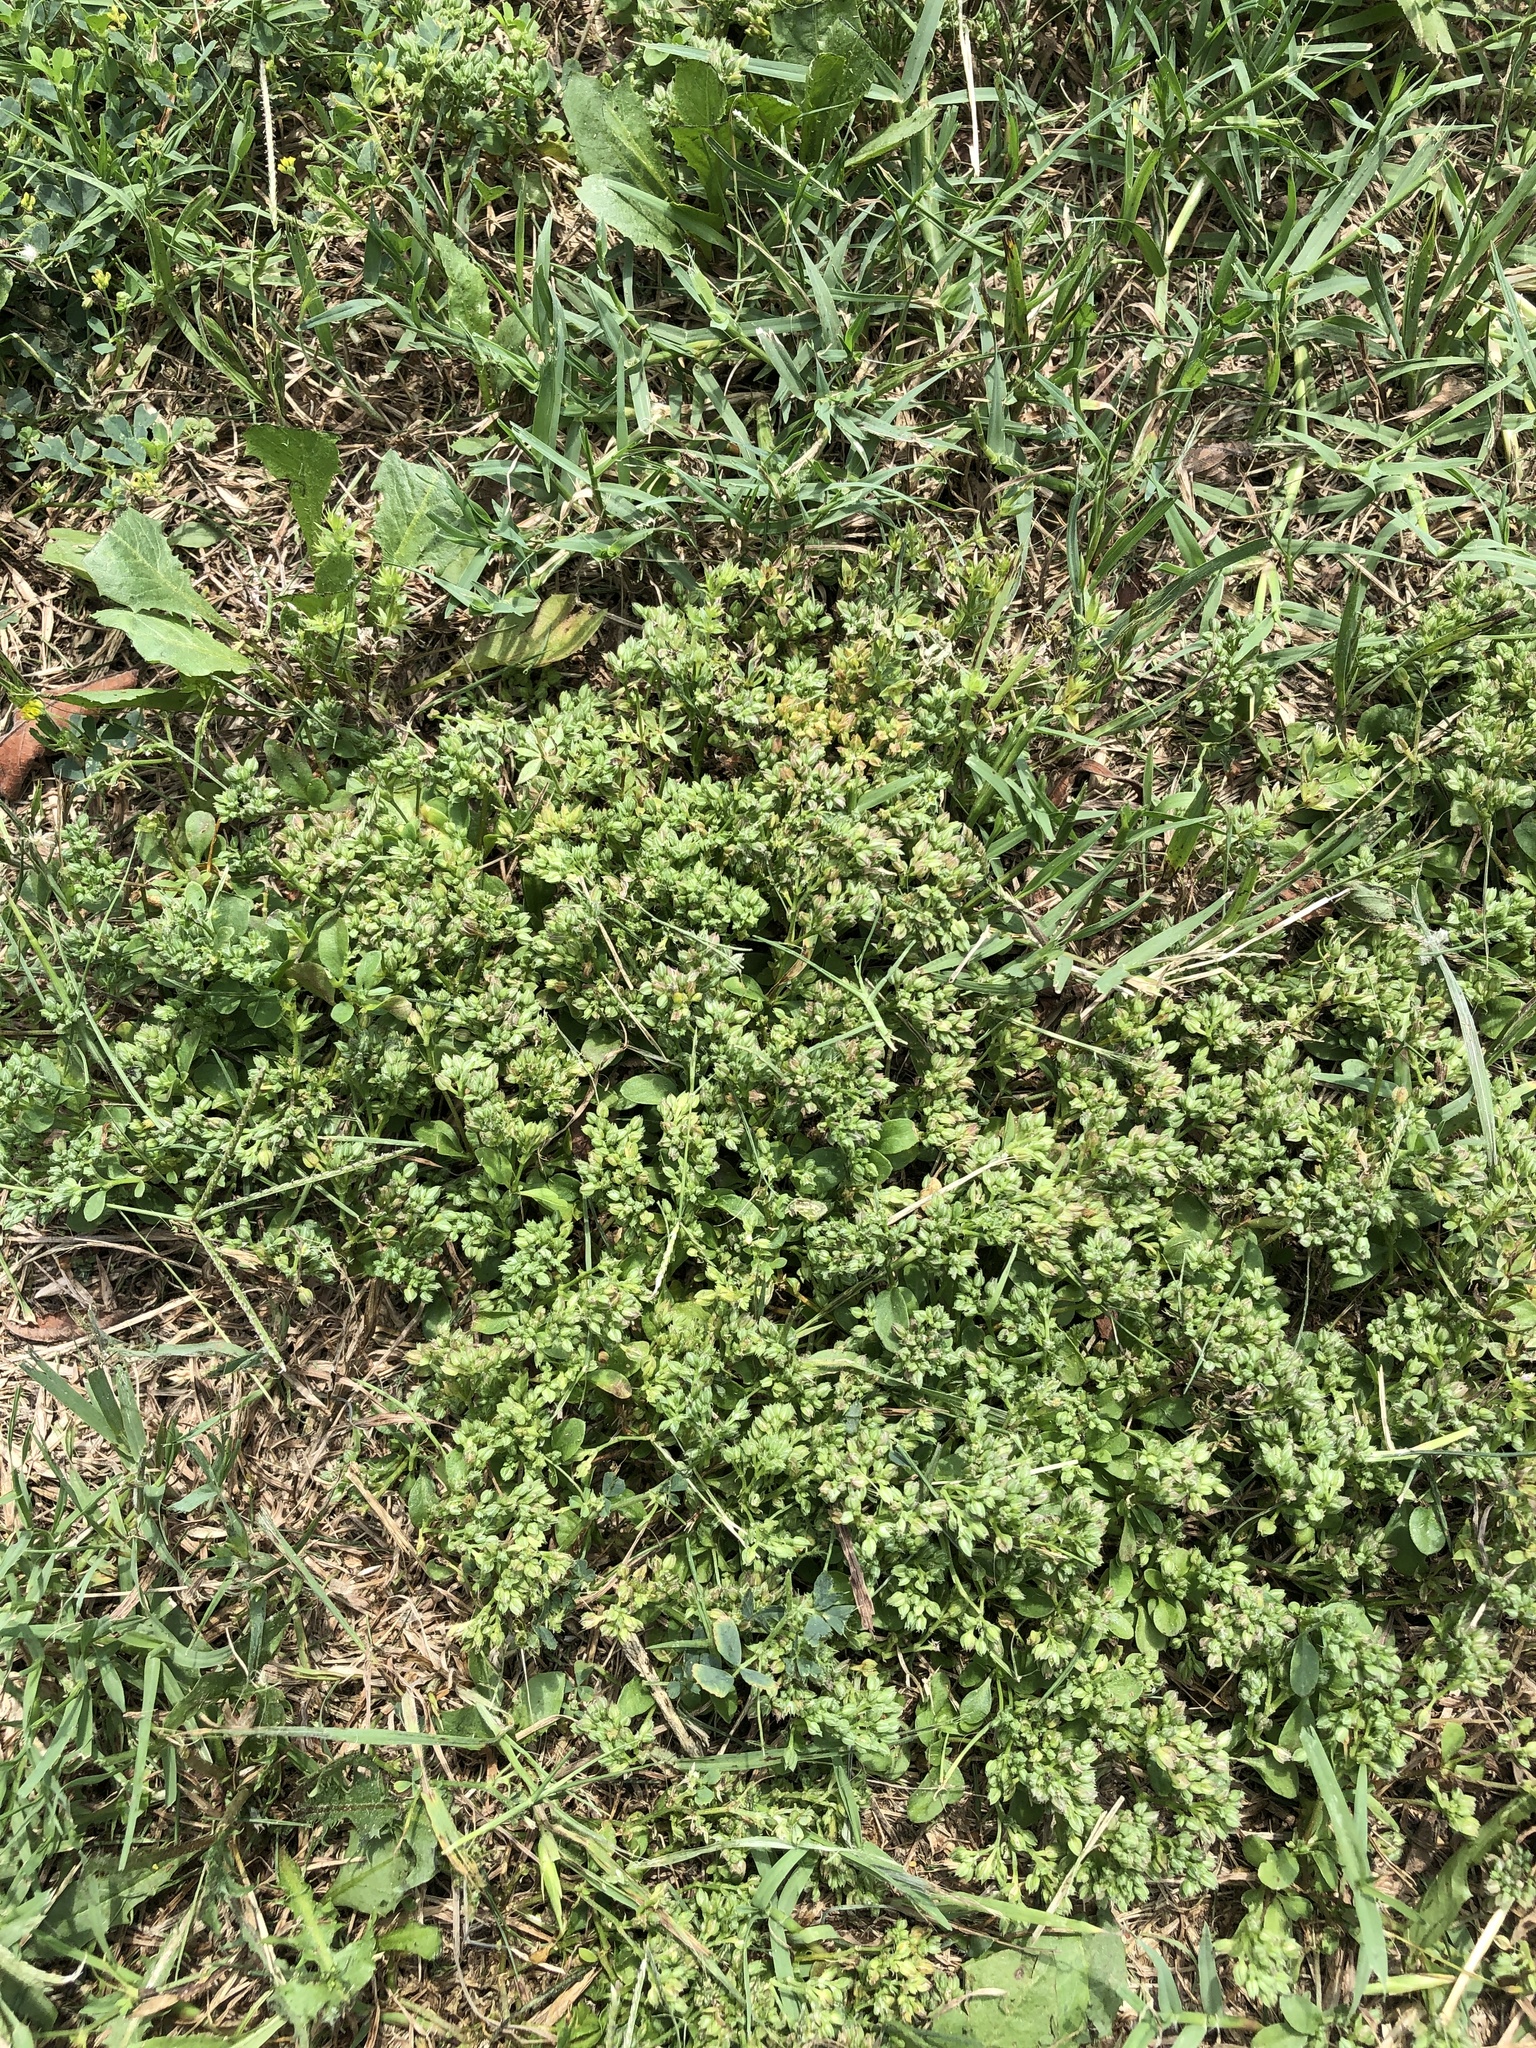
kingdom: Plantae
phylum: Tracheophyta
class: Magnoliopsida
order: Caryophyllales
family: Caryophyllaceae
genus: Polycarpon
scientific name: Polycarpon tetraphyllum
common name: Four-leaved all-seed
